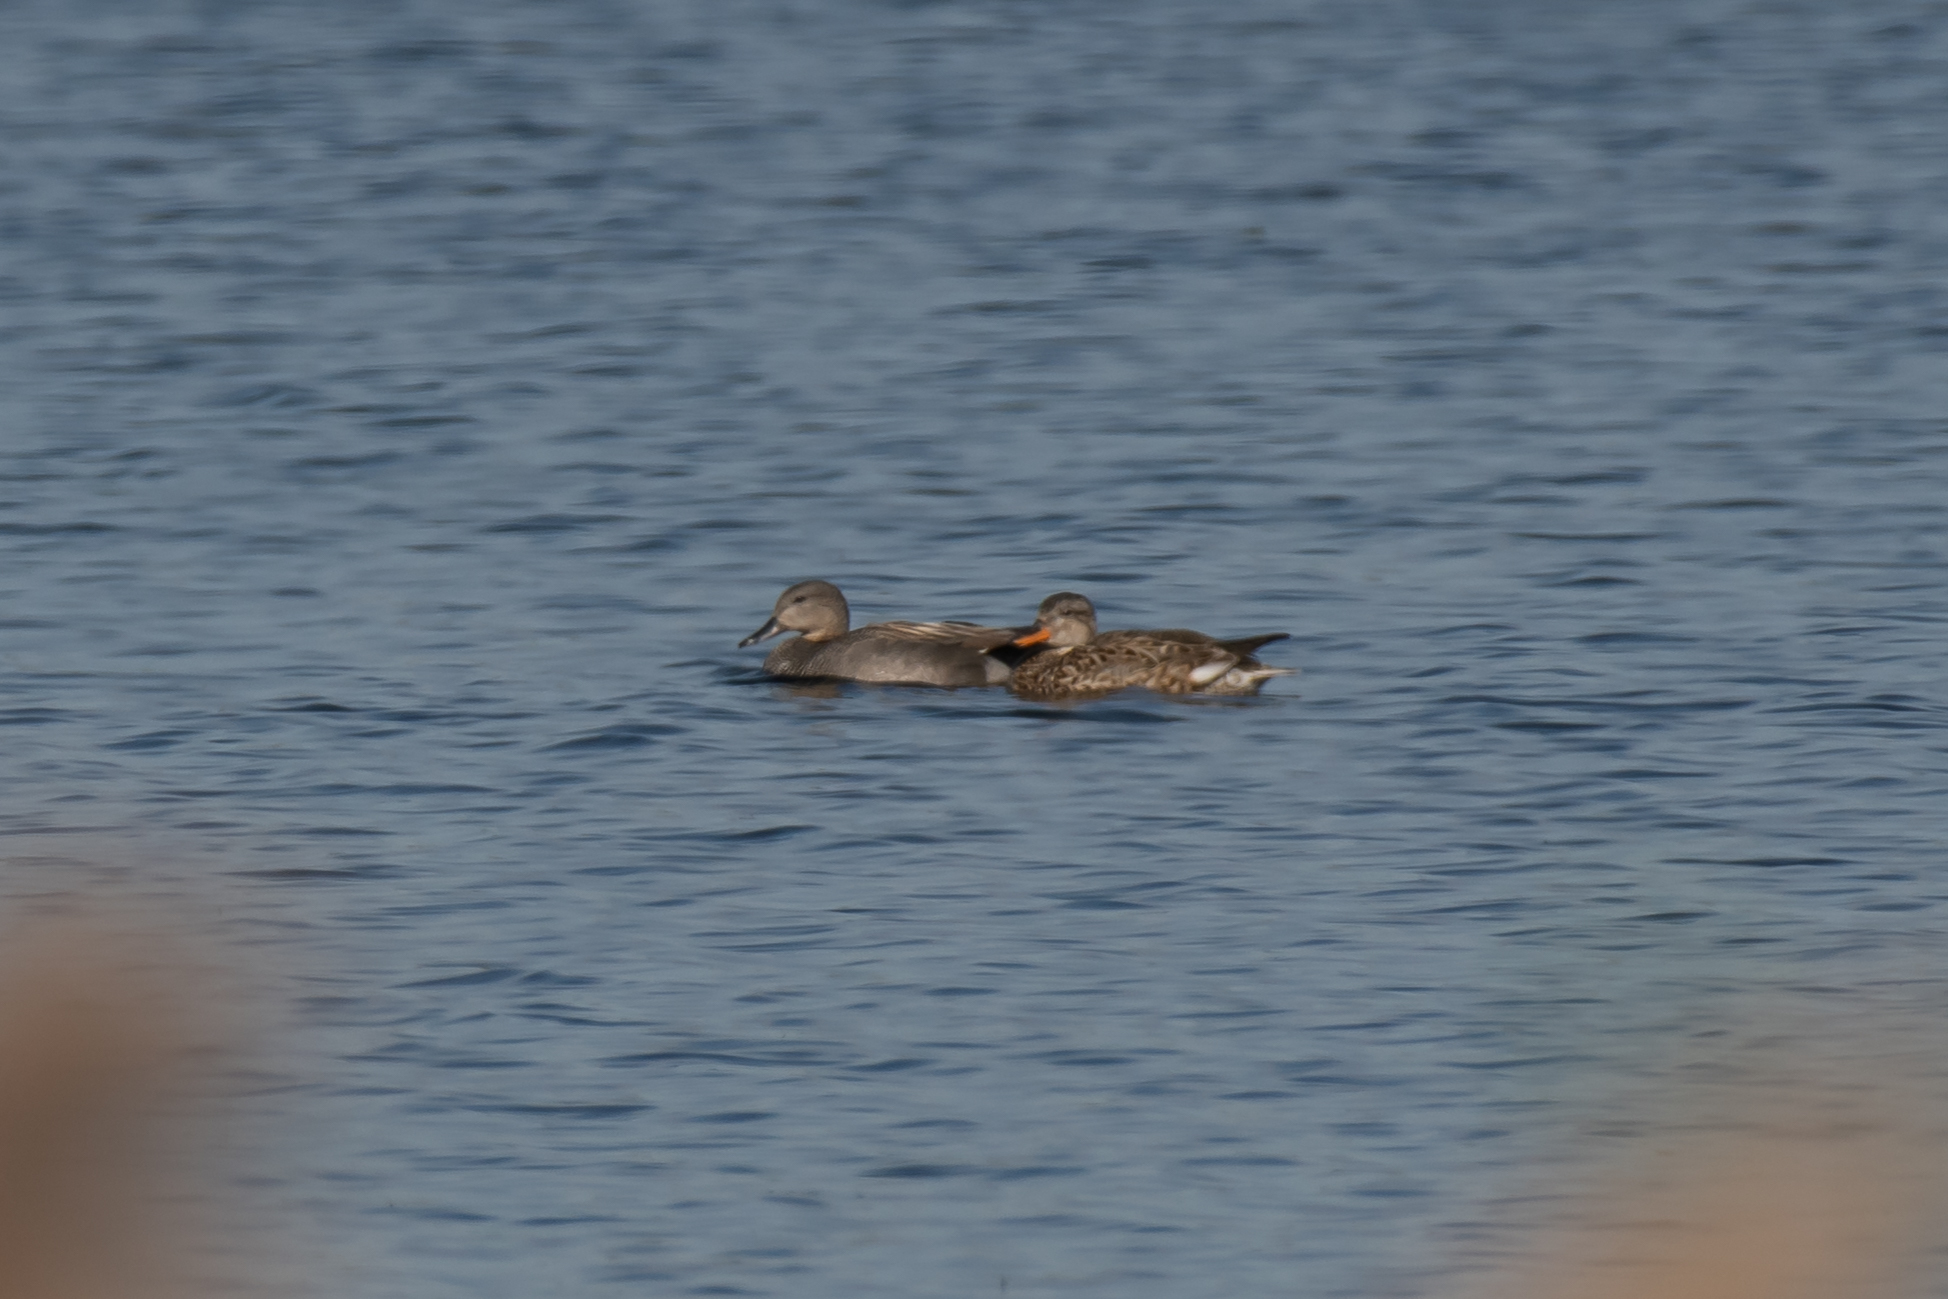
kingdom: Animalia
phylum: Chordata
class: Aves
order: Anseriformes
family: Anatidae
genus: Mareca
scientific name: Mareca strepera
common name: Gadwall
